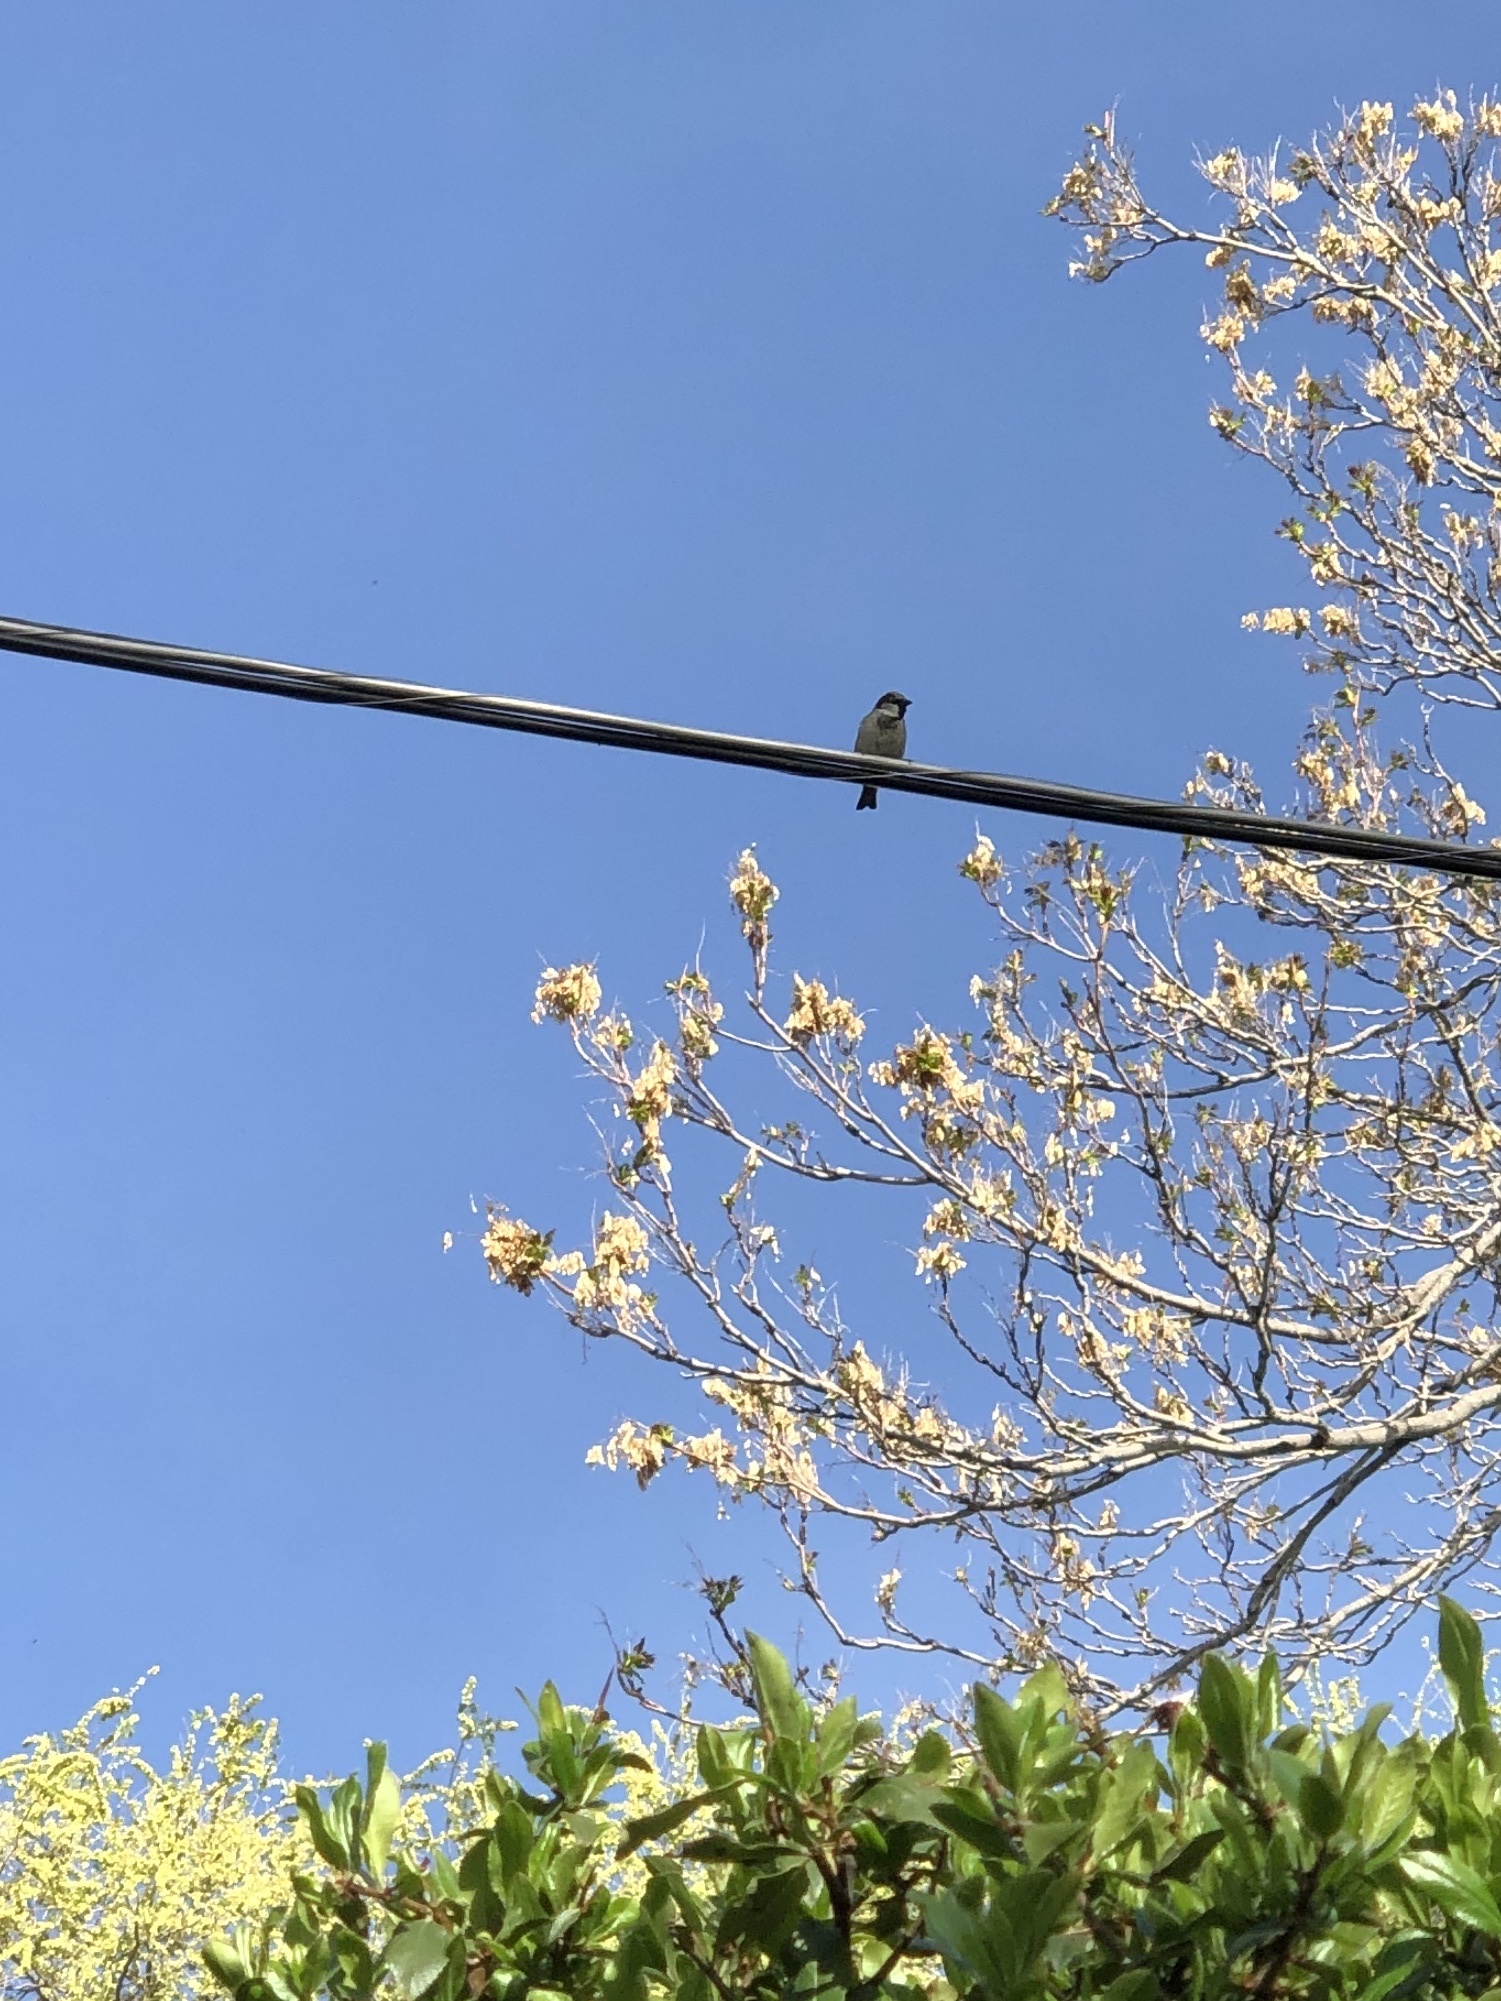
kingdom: Animalia
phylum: Chordata
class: Aves
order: Passeriformes
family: Passeridae
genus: Passer
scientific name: Passer domesticus
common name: House sparrow
